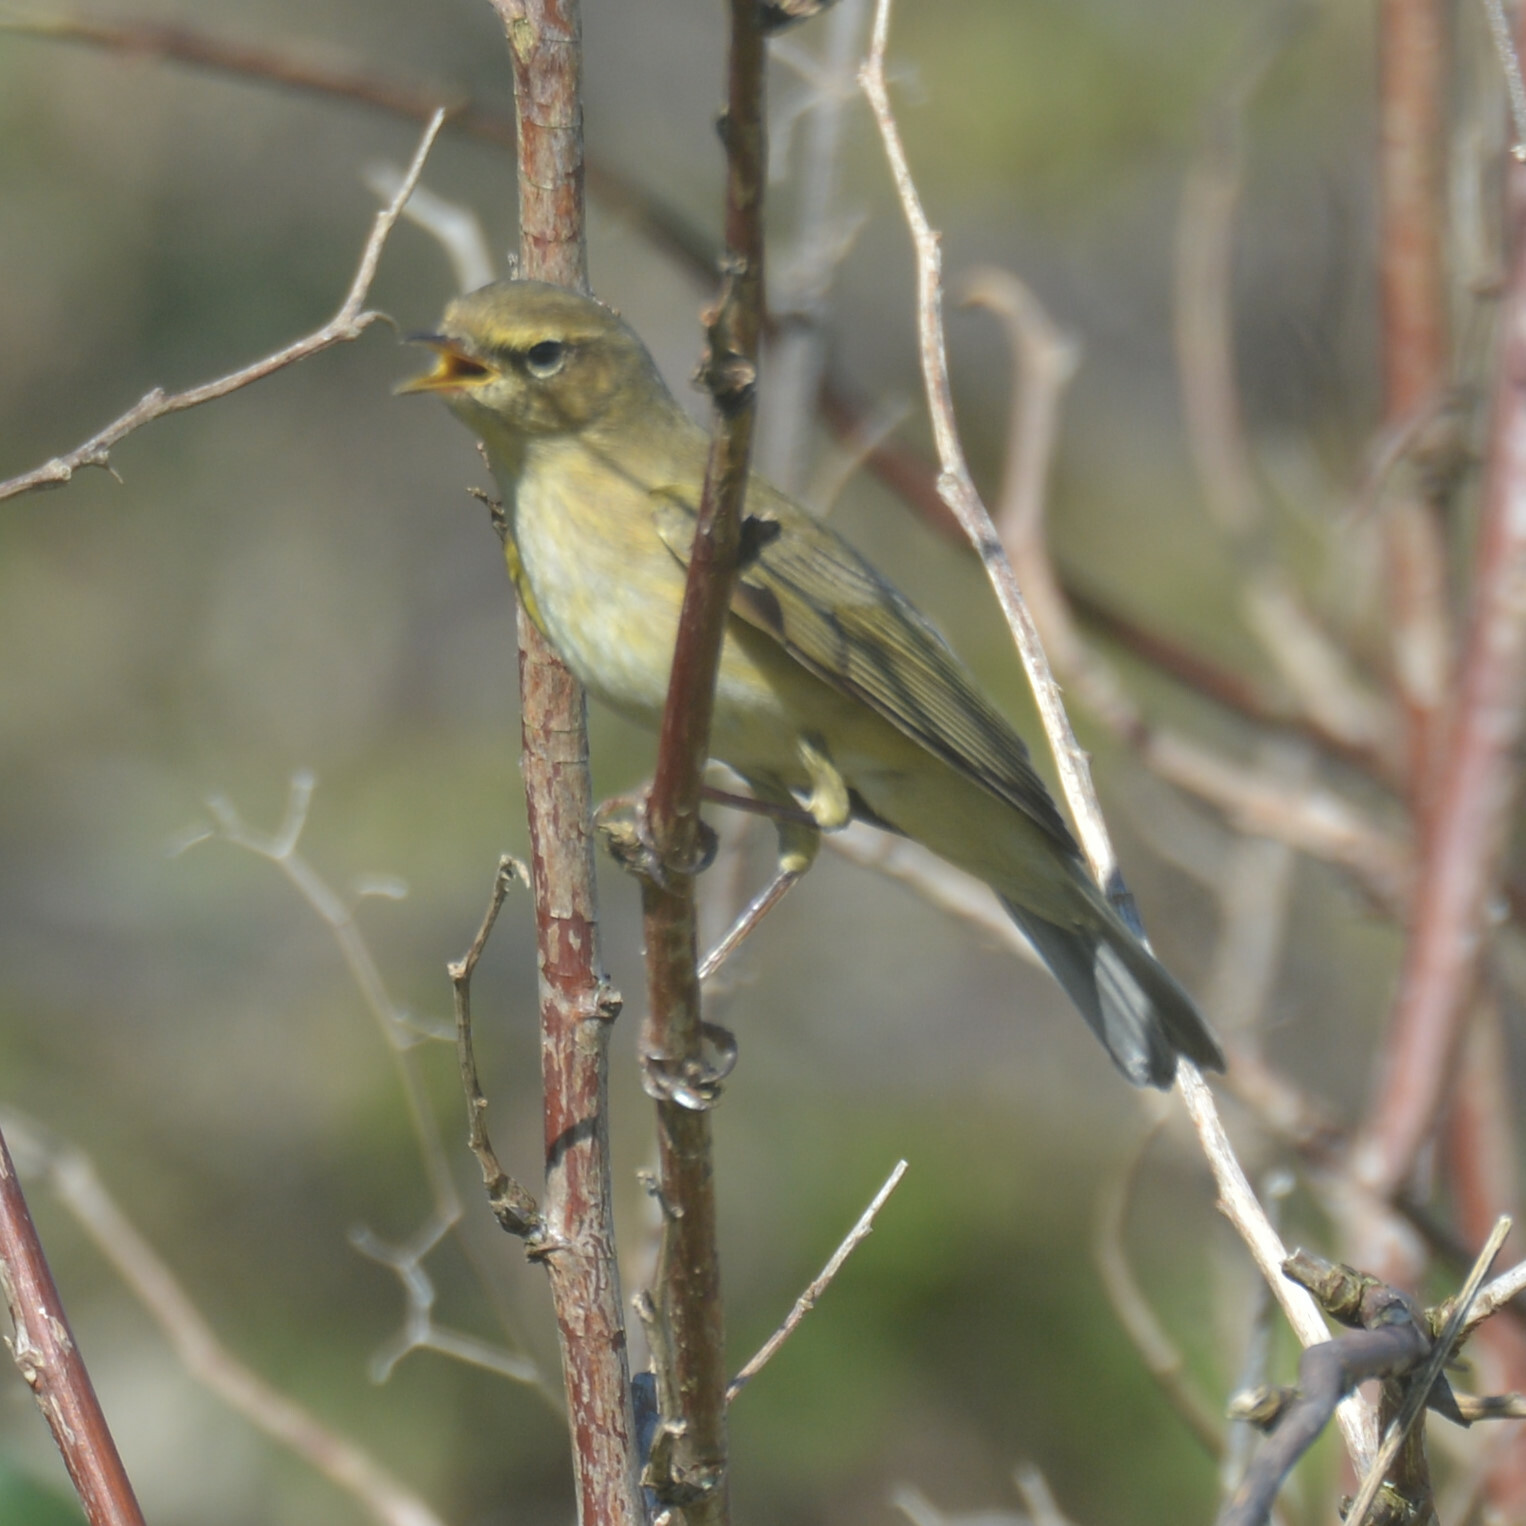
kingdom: Animalia
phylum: Chordata
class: Aves
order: Passeriformes
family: Phylloscopidae
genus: Phylloscopus
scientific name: Phylloscopus trochilus
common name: Willow warbler
